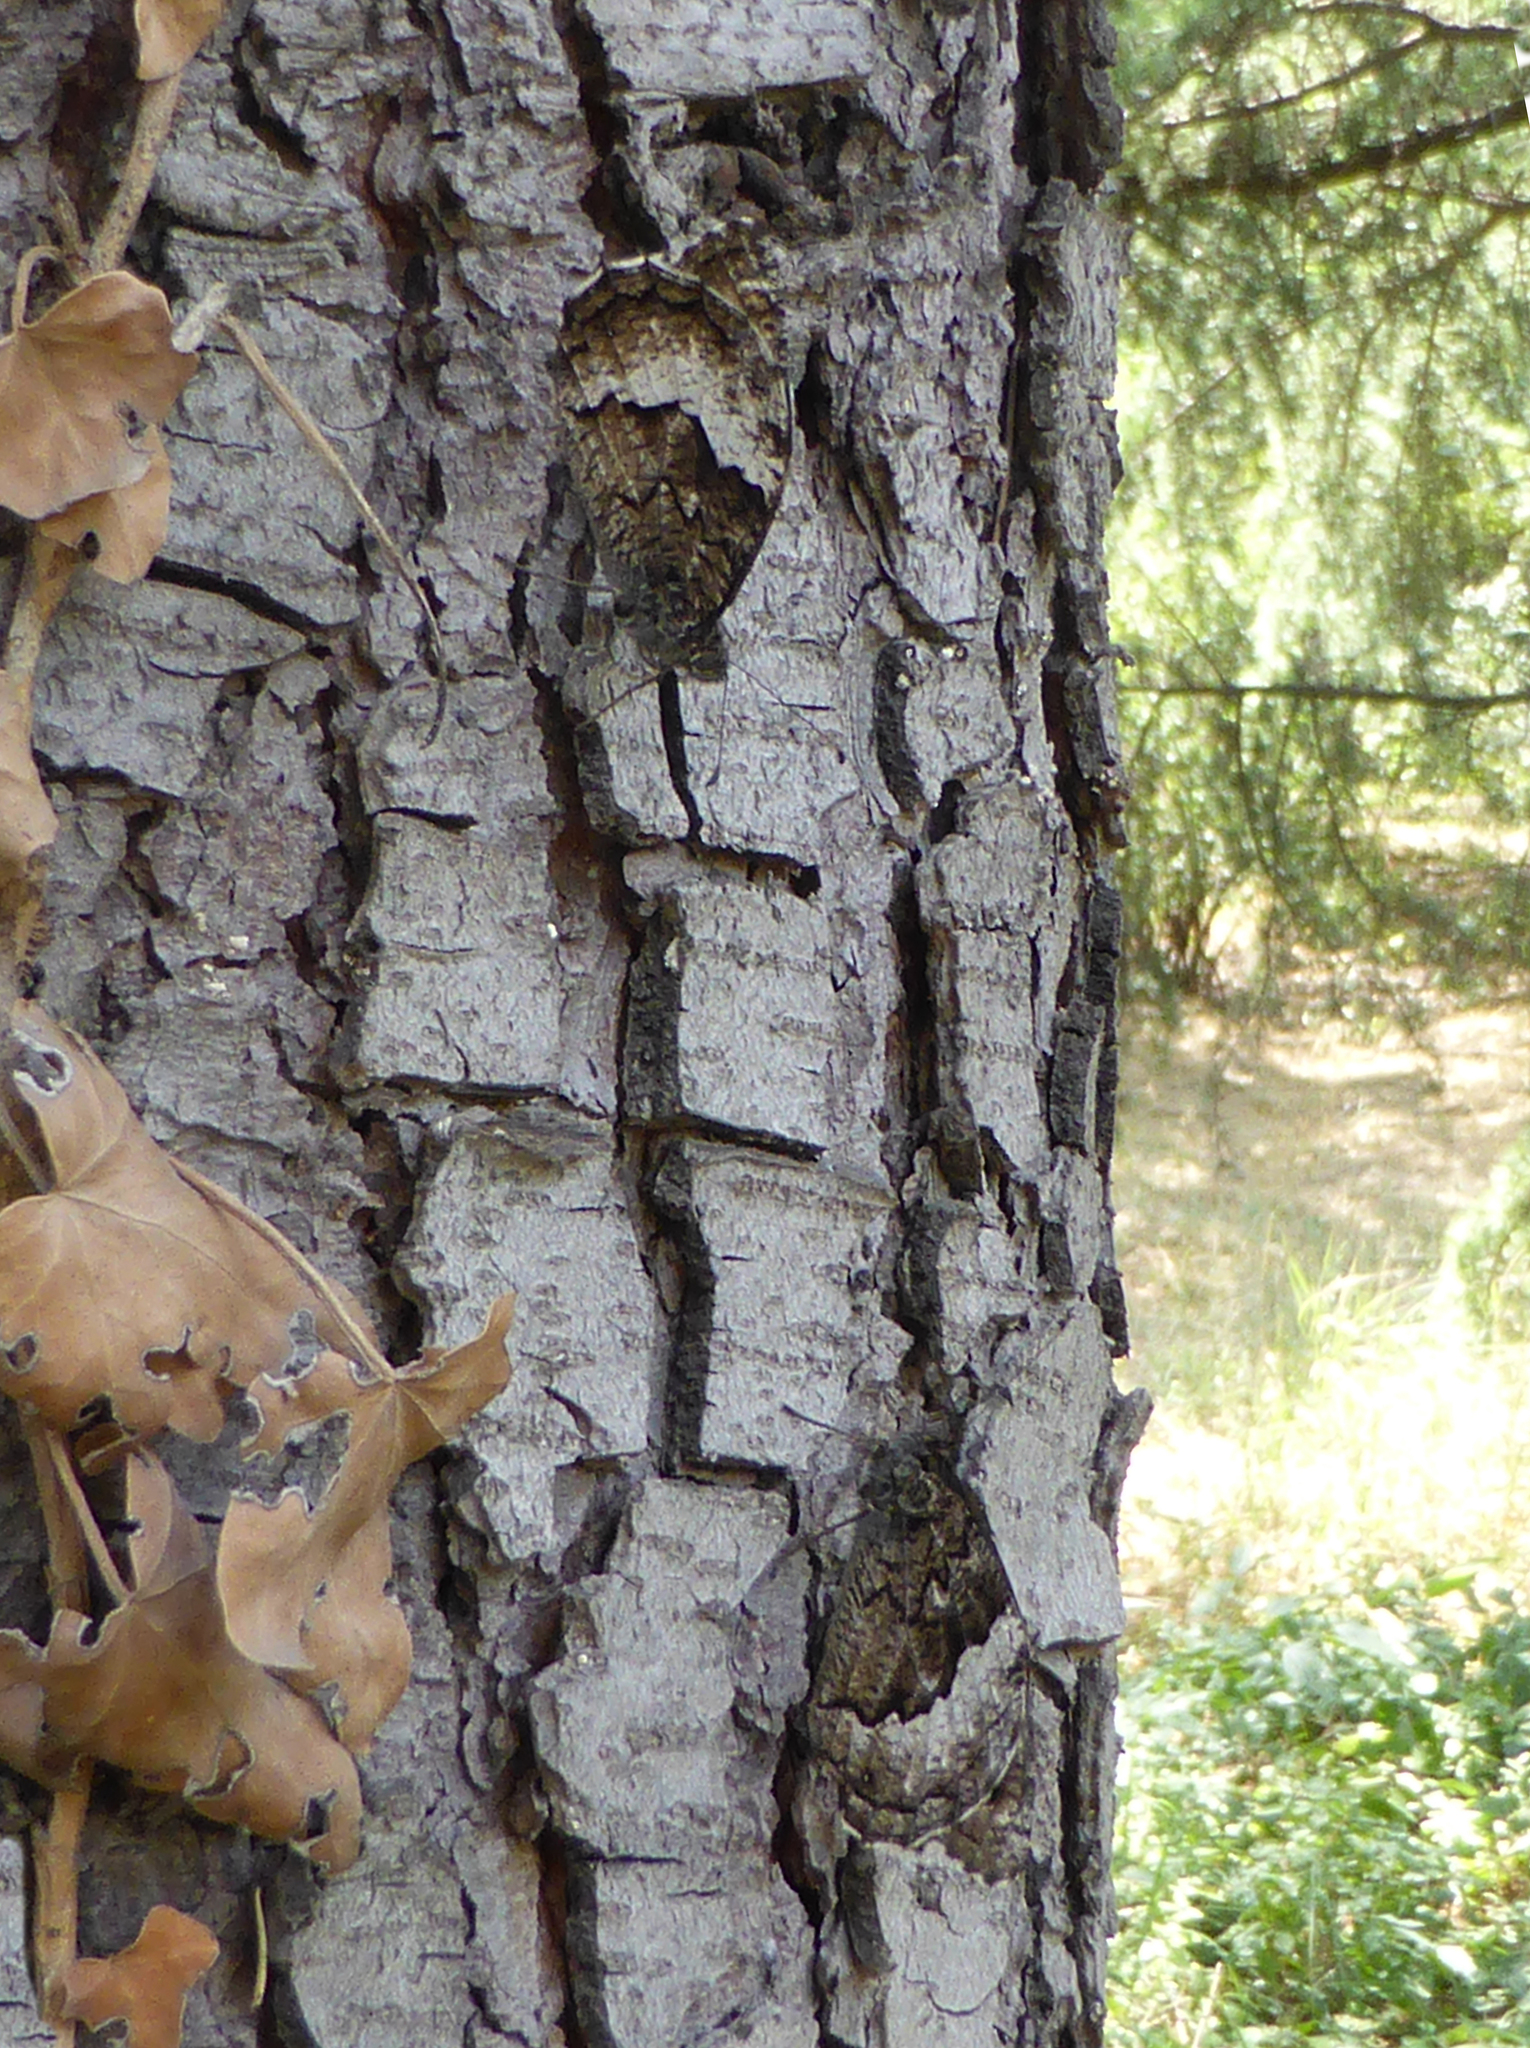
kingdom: Animalia
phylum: Arthropoda
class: Insecta
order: Lepidoptera
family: Nymphalidae
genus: Hipparchia
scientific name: Hipparchia syriaca
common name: Eastern rock grayling
